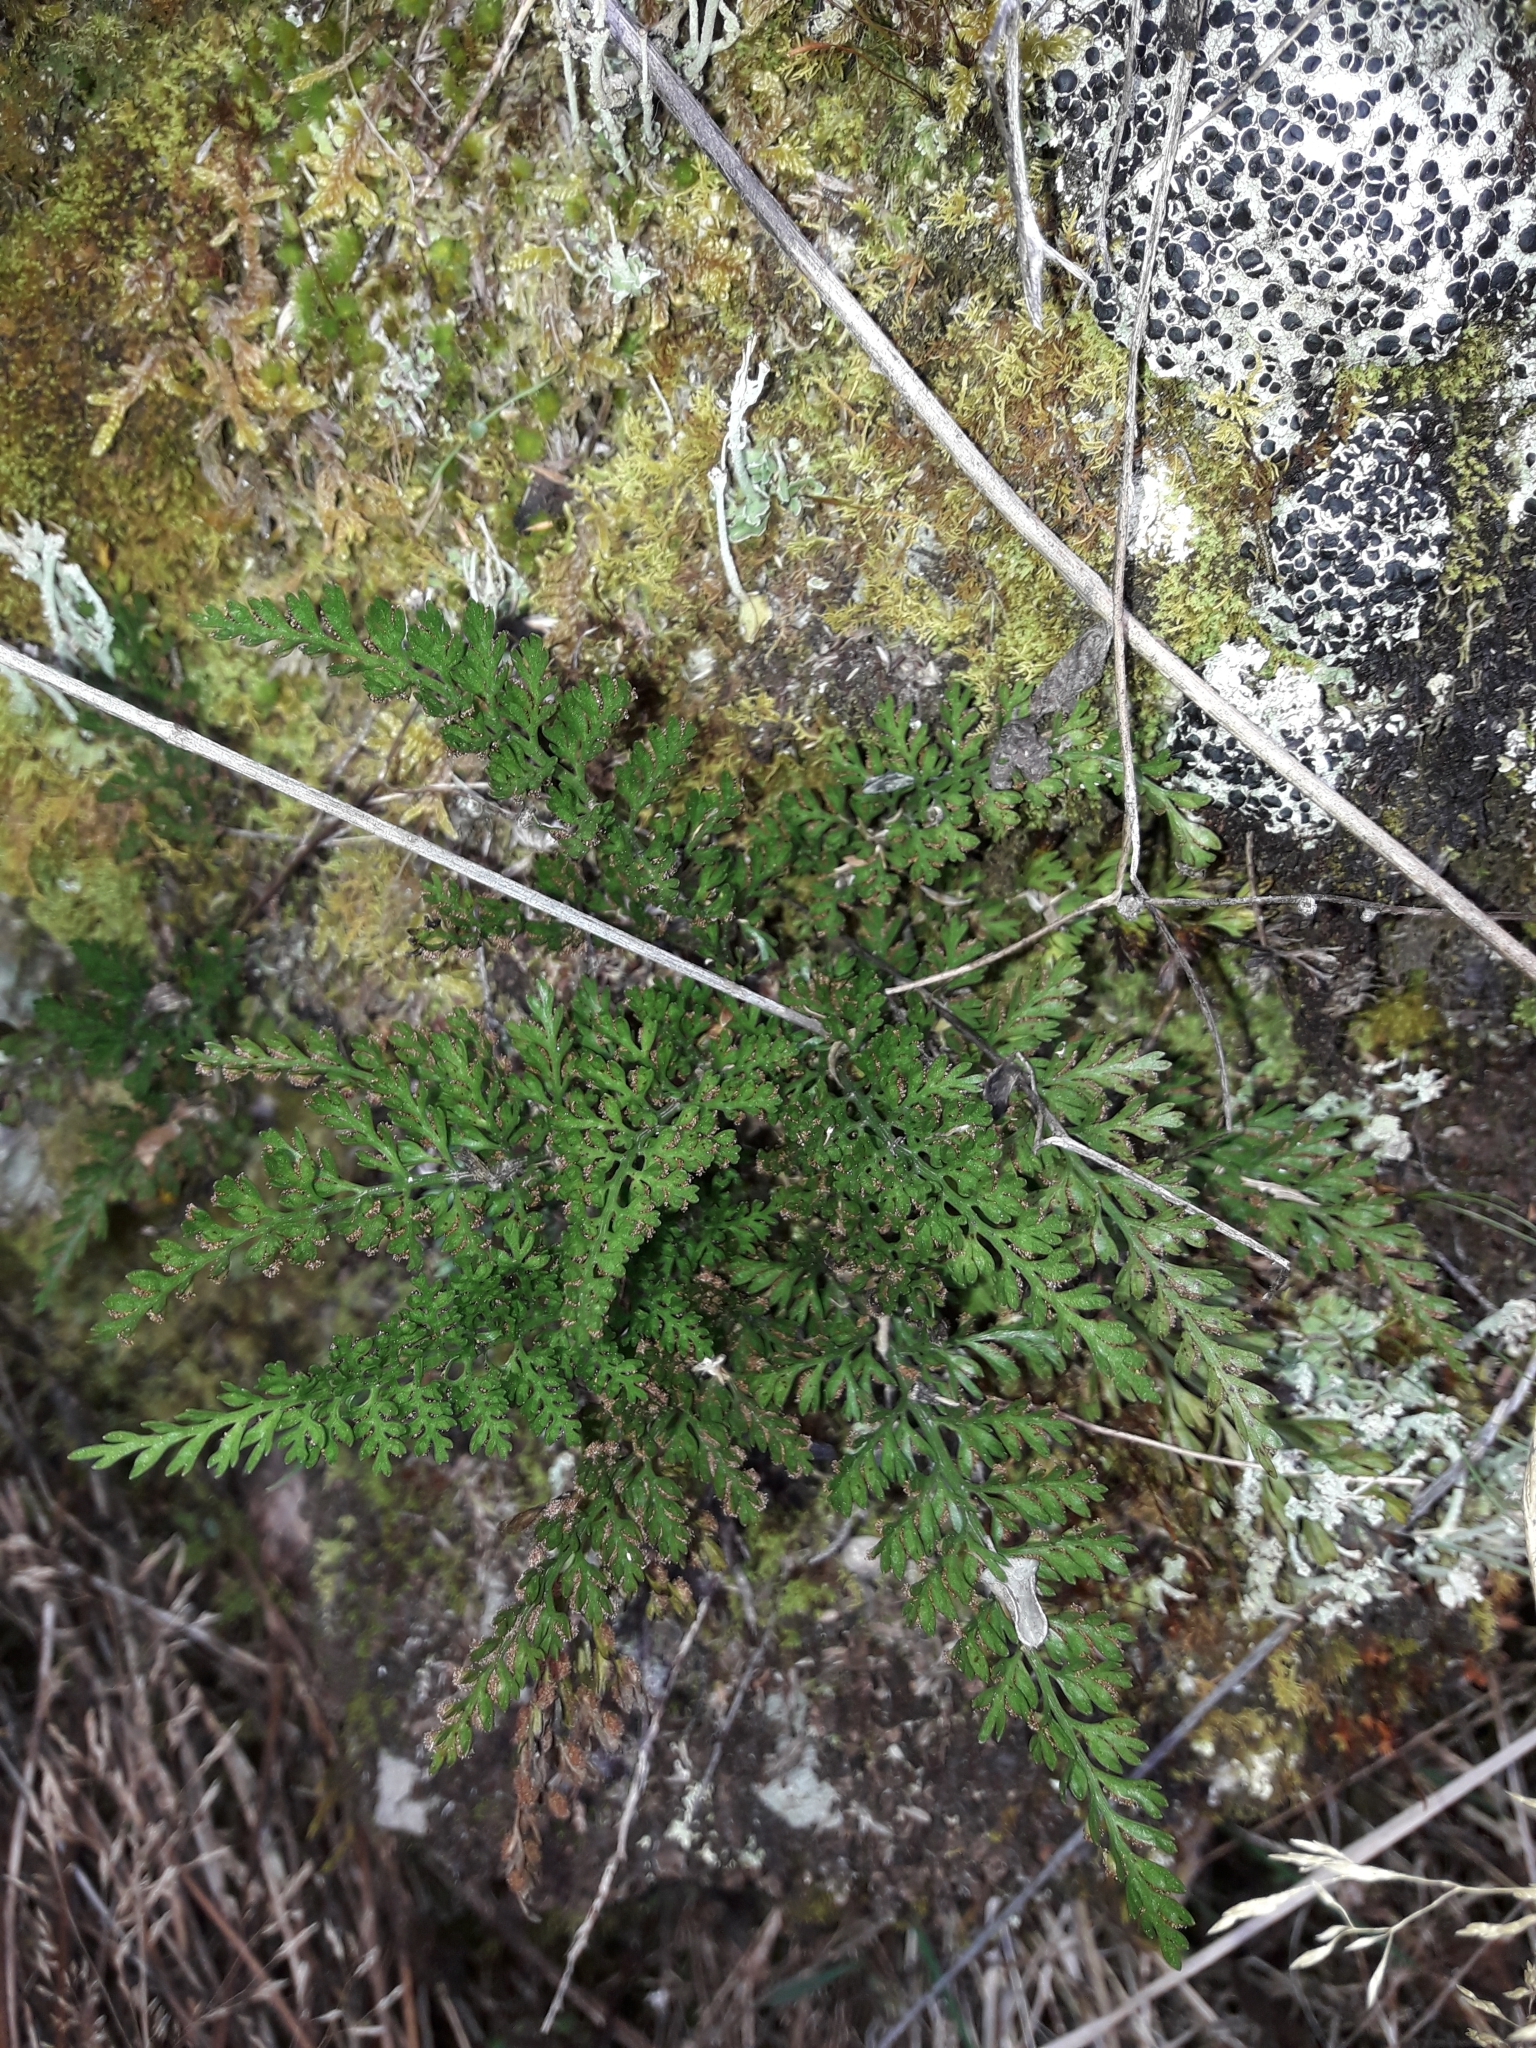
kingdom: Plantae
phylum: Tracheophyta
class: Polypodiopsida
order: Polypodiales
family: Aspleniaceae
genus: Asplenium
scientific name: Asplenium richardii
